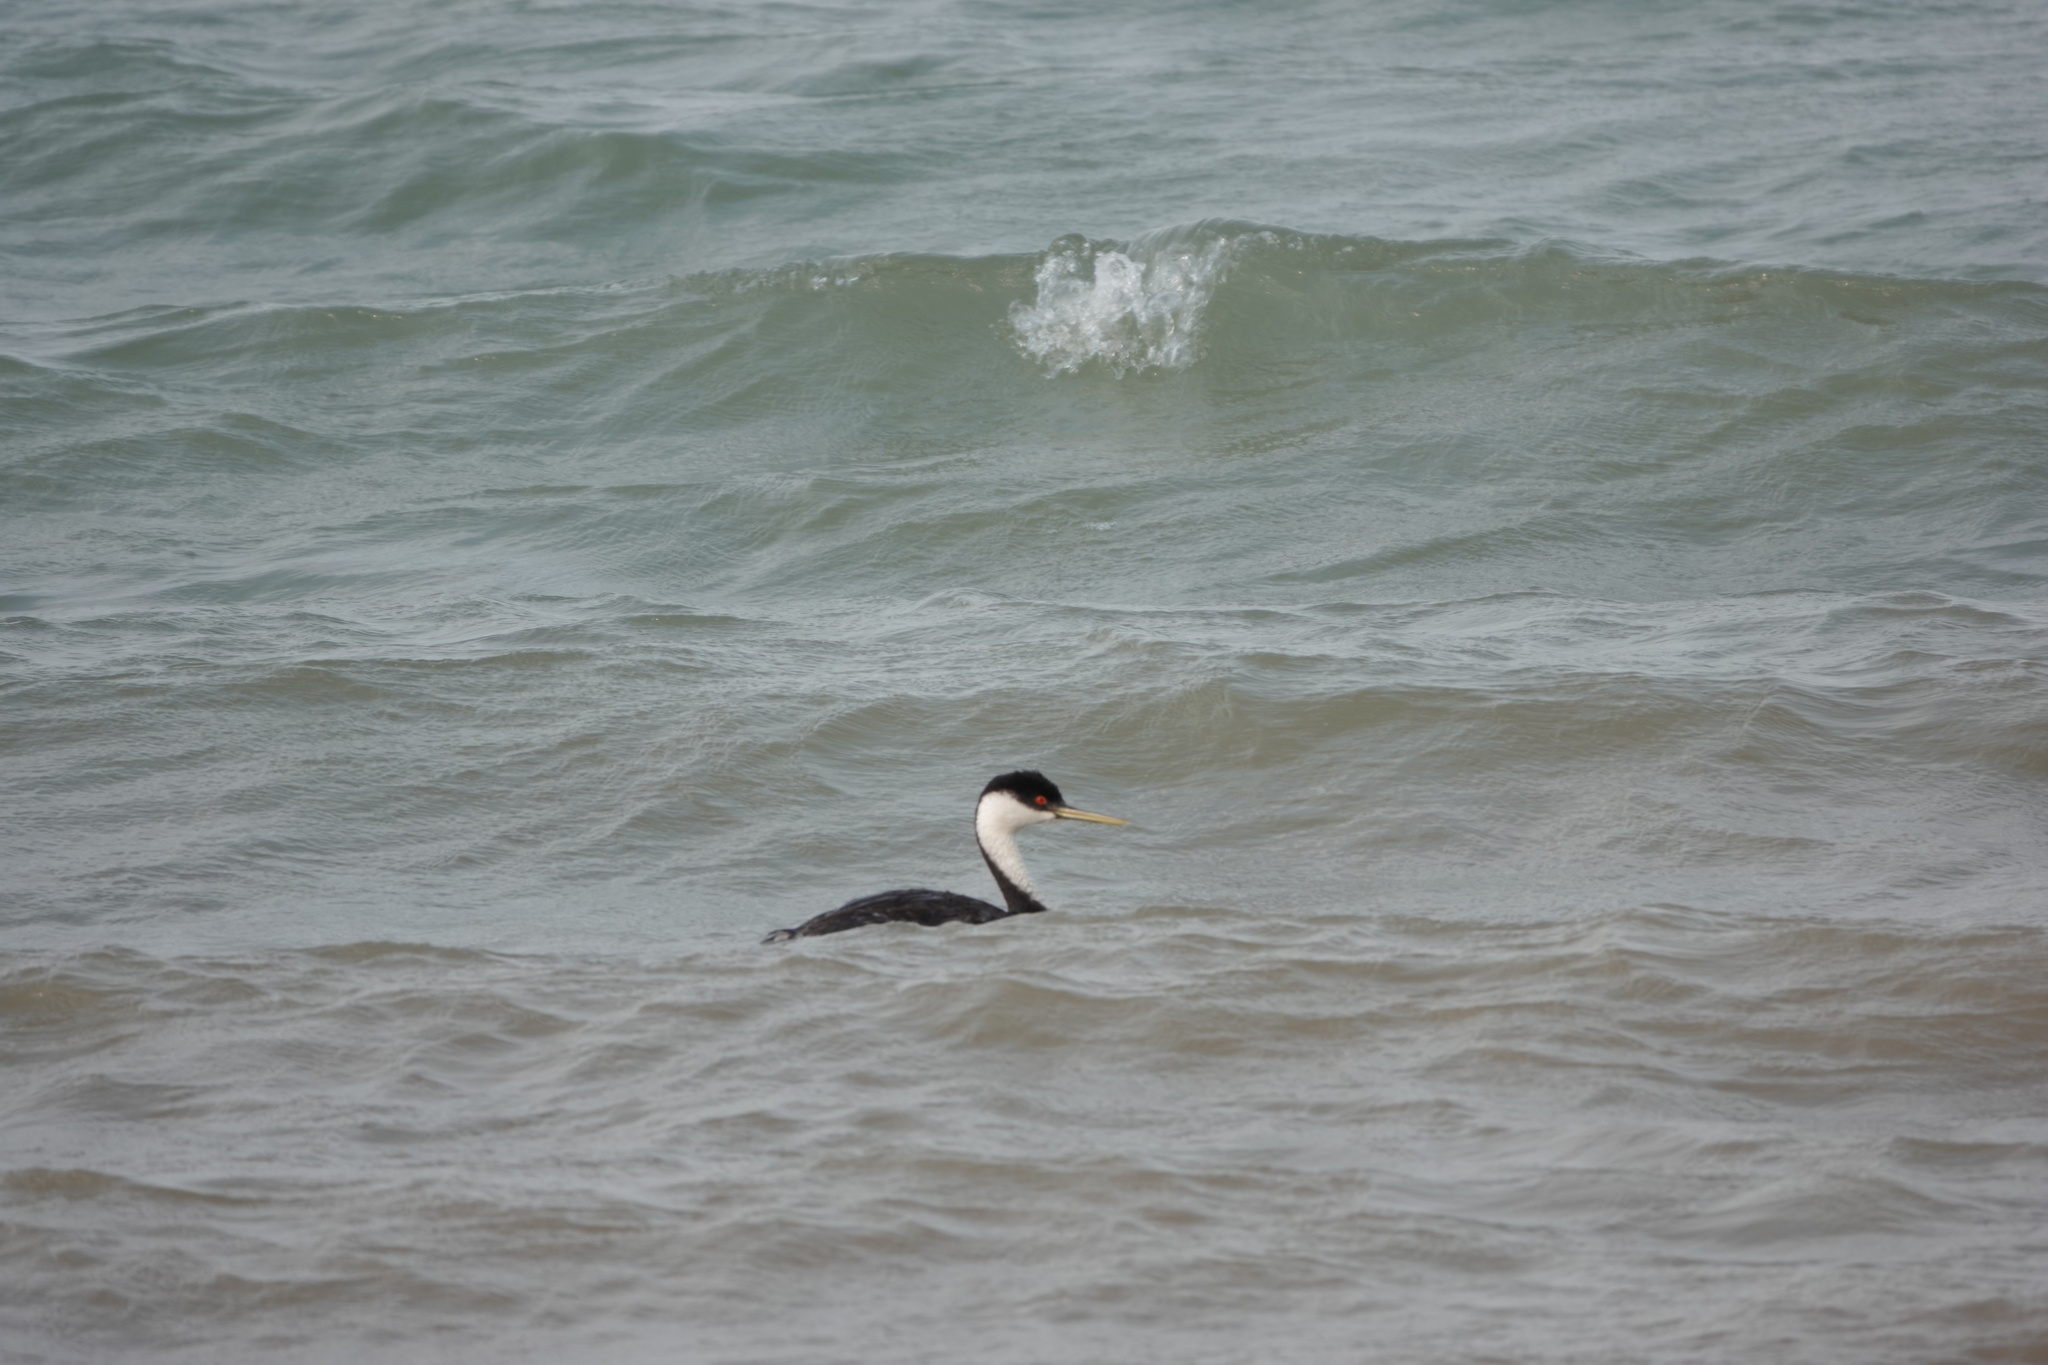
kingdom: Animalia
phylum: Chordata
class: Aves
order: Podicipediformes
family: Podicipedidae
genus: Aechmophorus
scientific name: Aechmophorus occidentalis
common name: Western grebe
